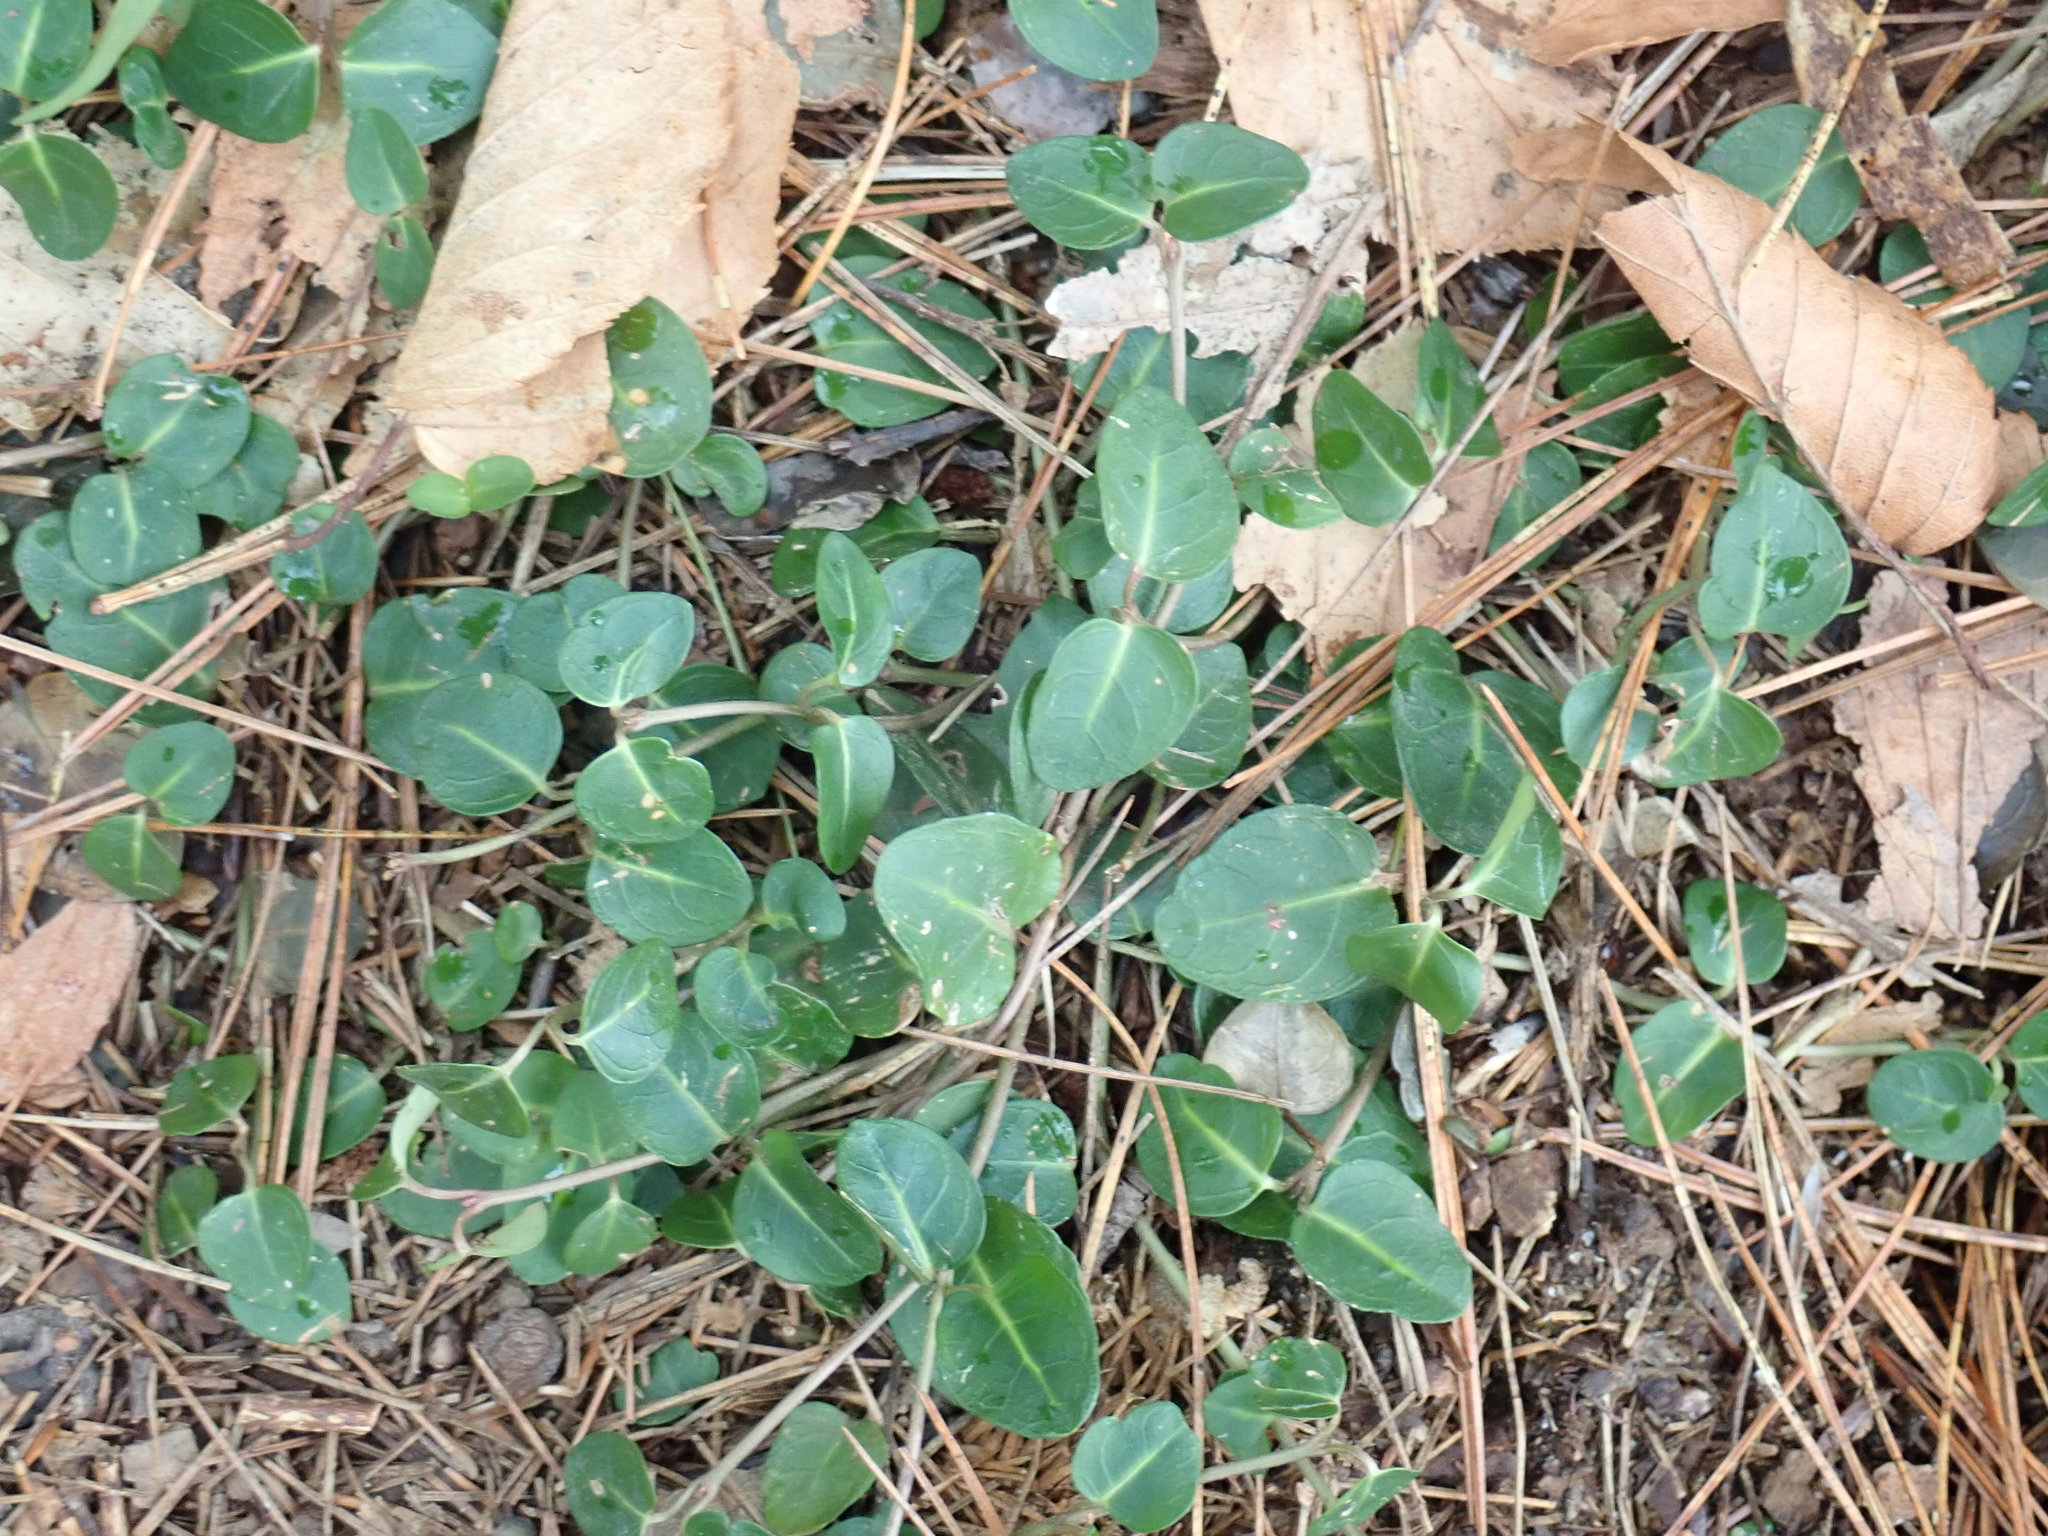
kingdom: Plantae
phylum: Tracheophyta
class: Magnoliopsida
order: Gentianales
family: Rubiaceae
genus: Mitchella
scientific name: Mitchella repens
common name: Partridge-berry
